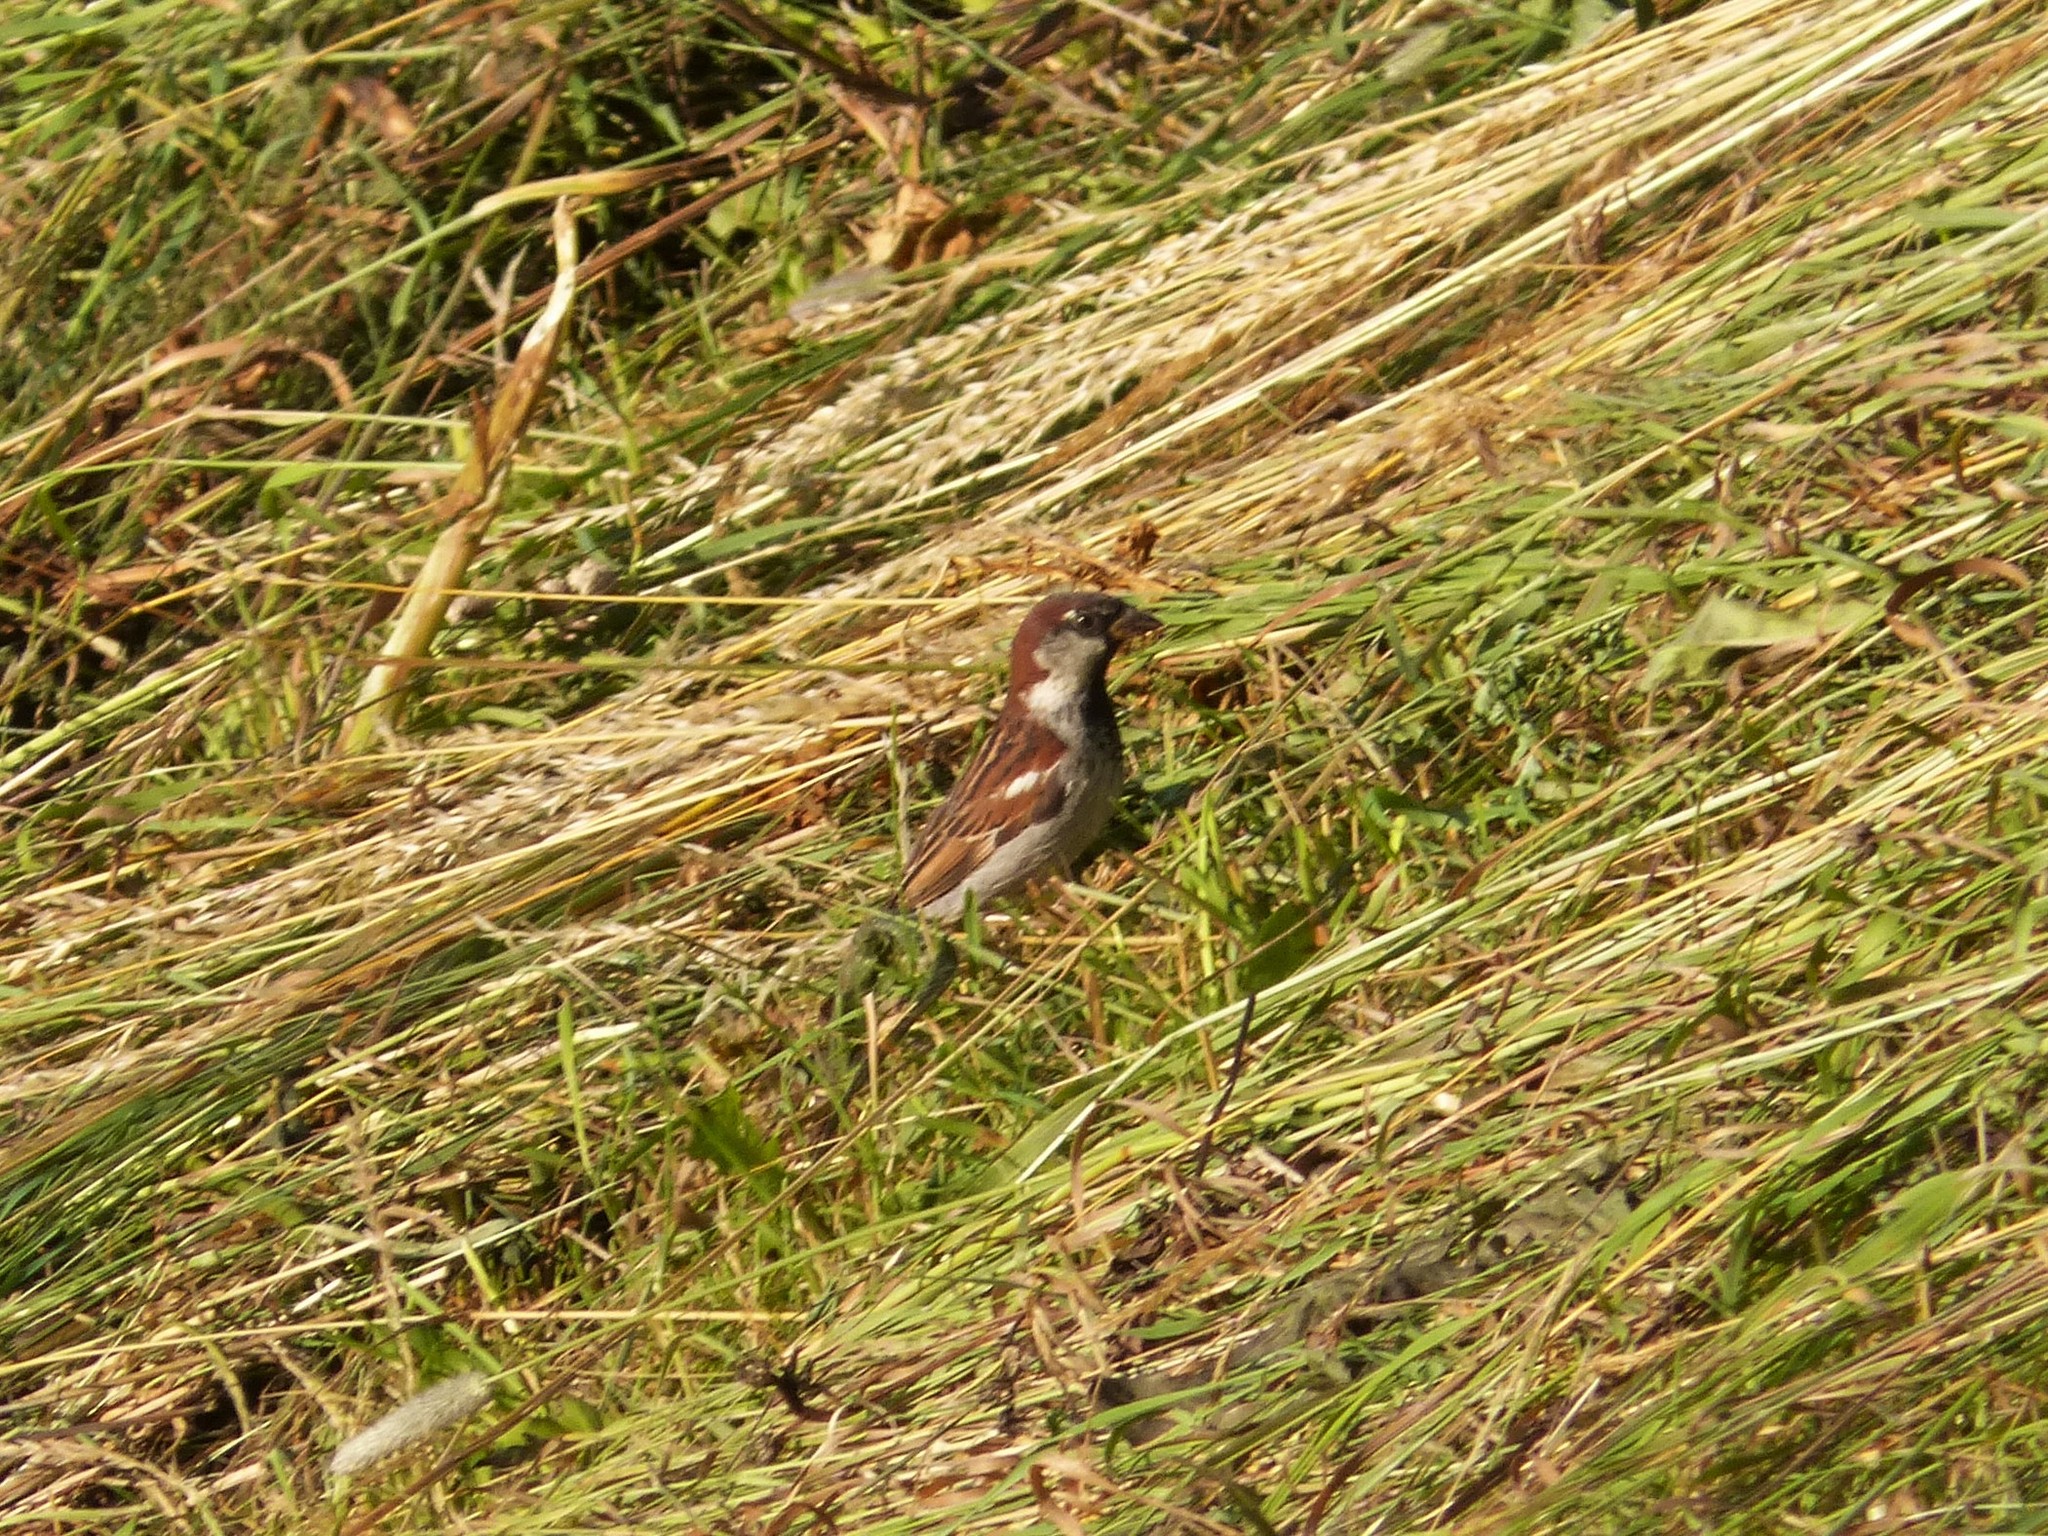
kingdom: Animalia
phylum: Chordata
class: Aves
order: Passeriformes
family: Passeridae
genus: Passer
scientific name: Passer italiae
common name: Italian sparrow
